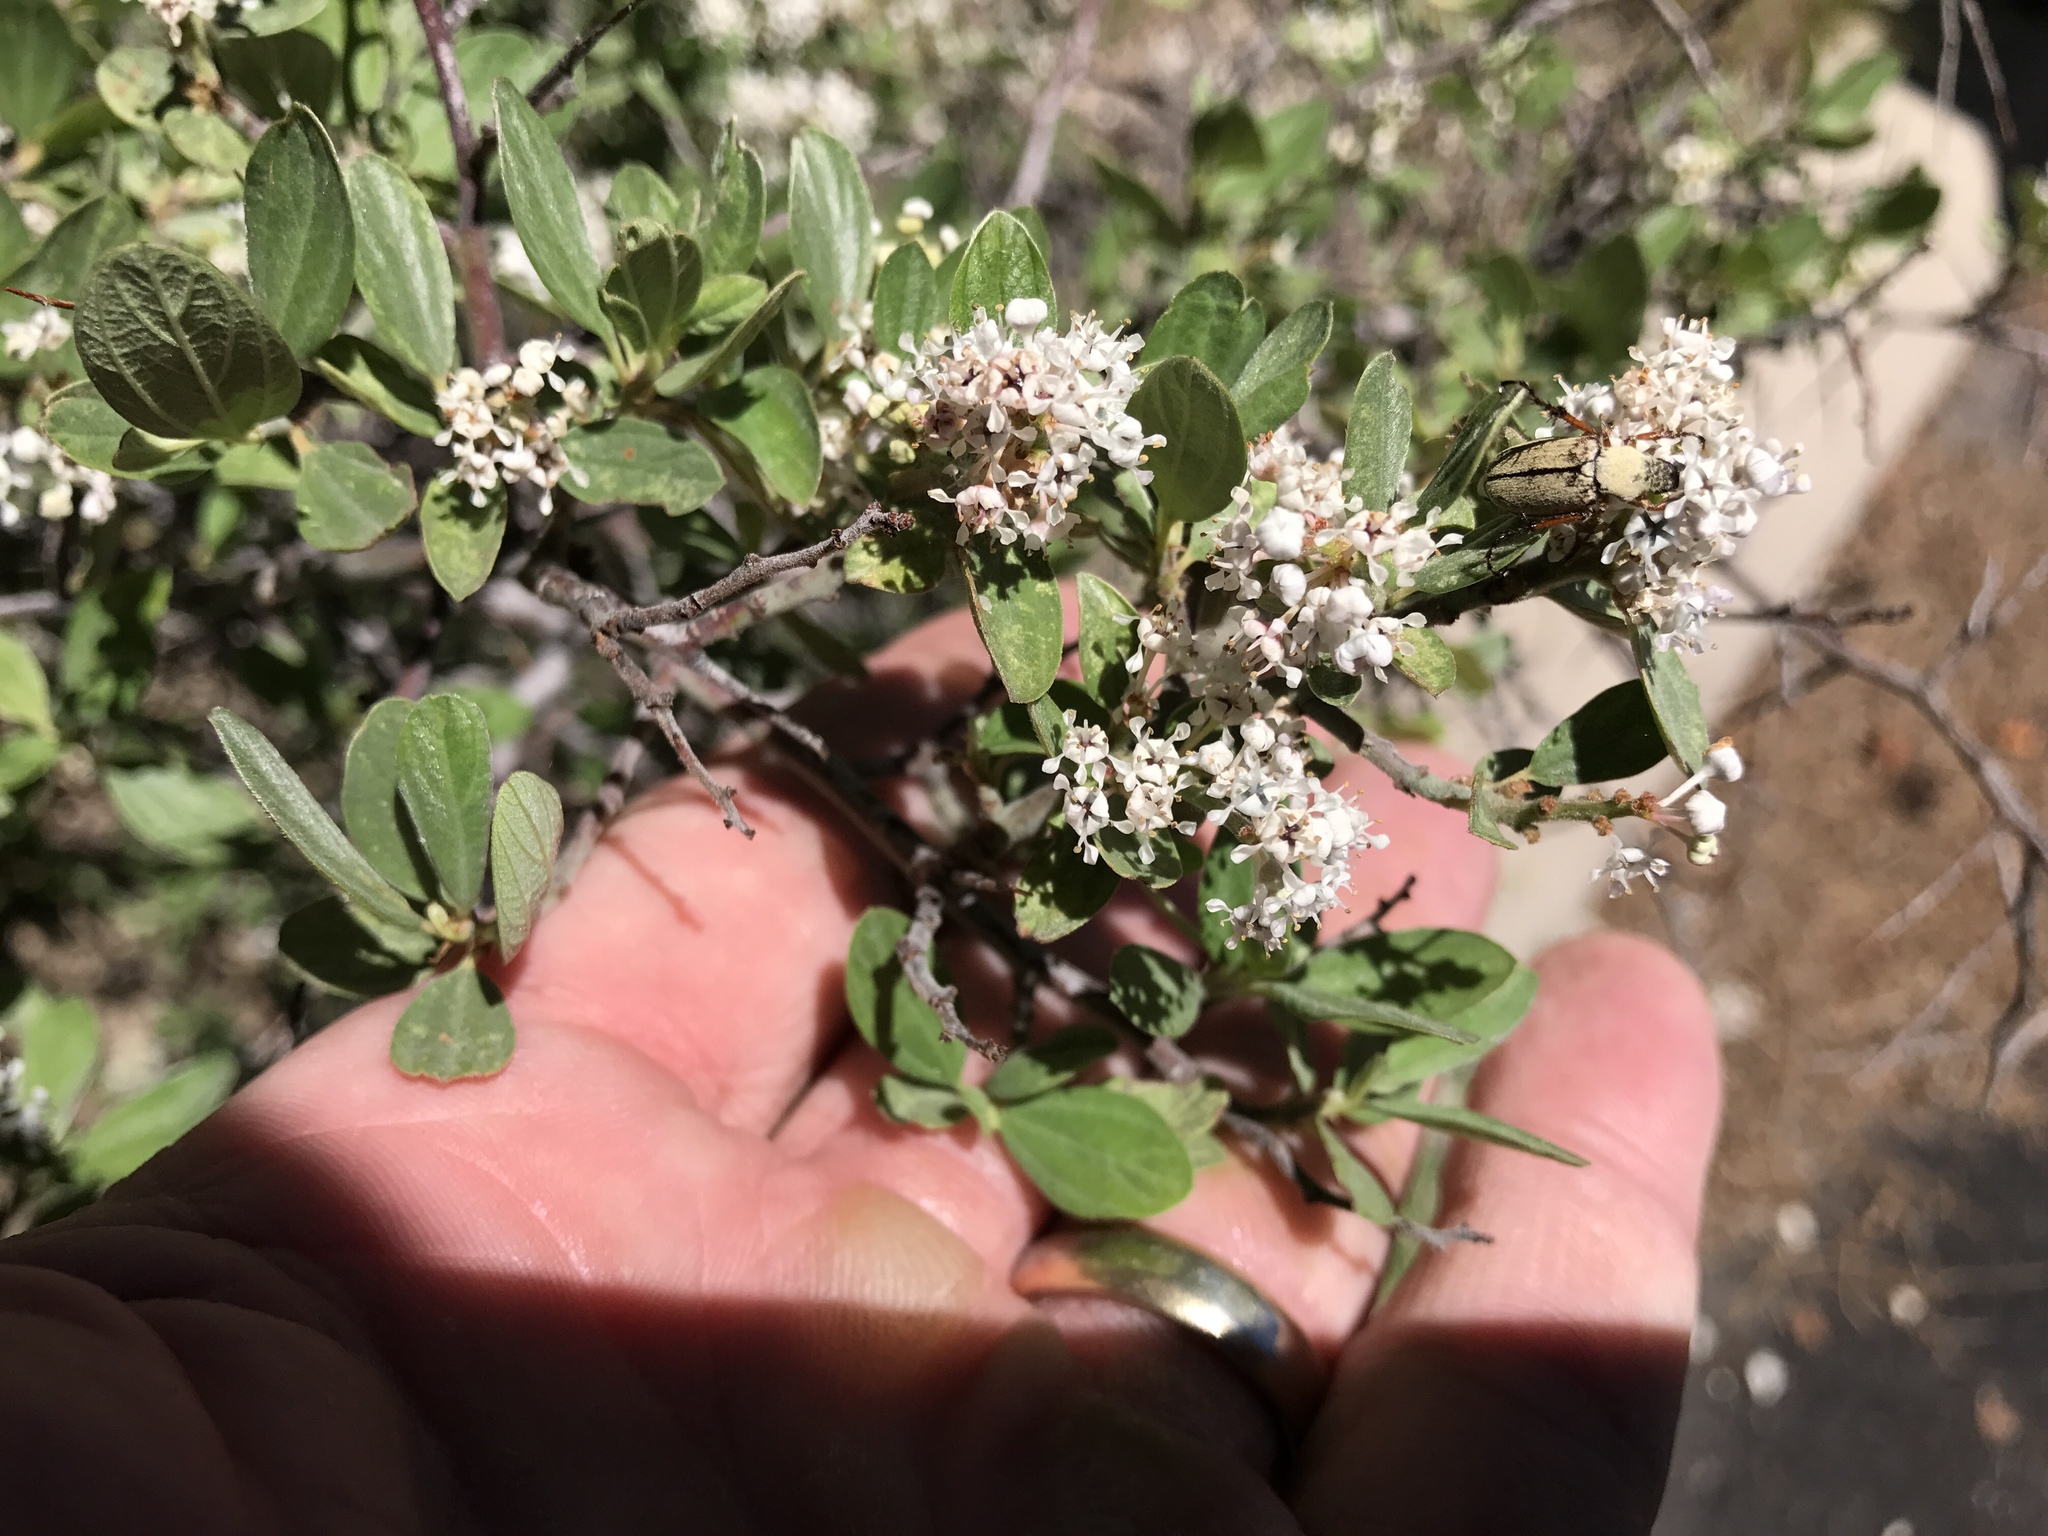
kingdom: Plantae
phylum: Tracheophyta
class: Magnoliopsida
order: Rosales
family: Rhamnaceae
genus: Ceanothus
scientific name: Ceanothus fendleri
